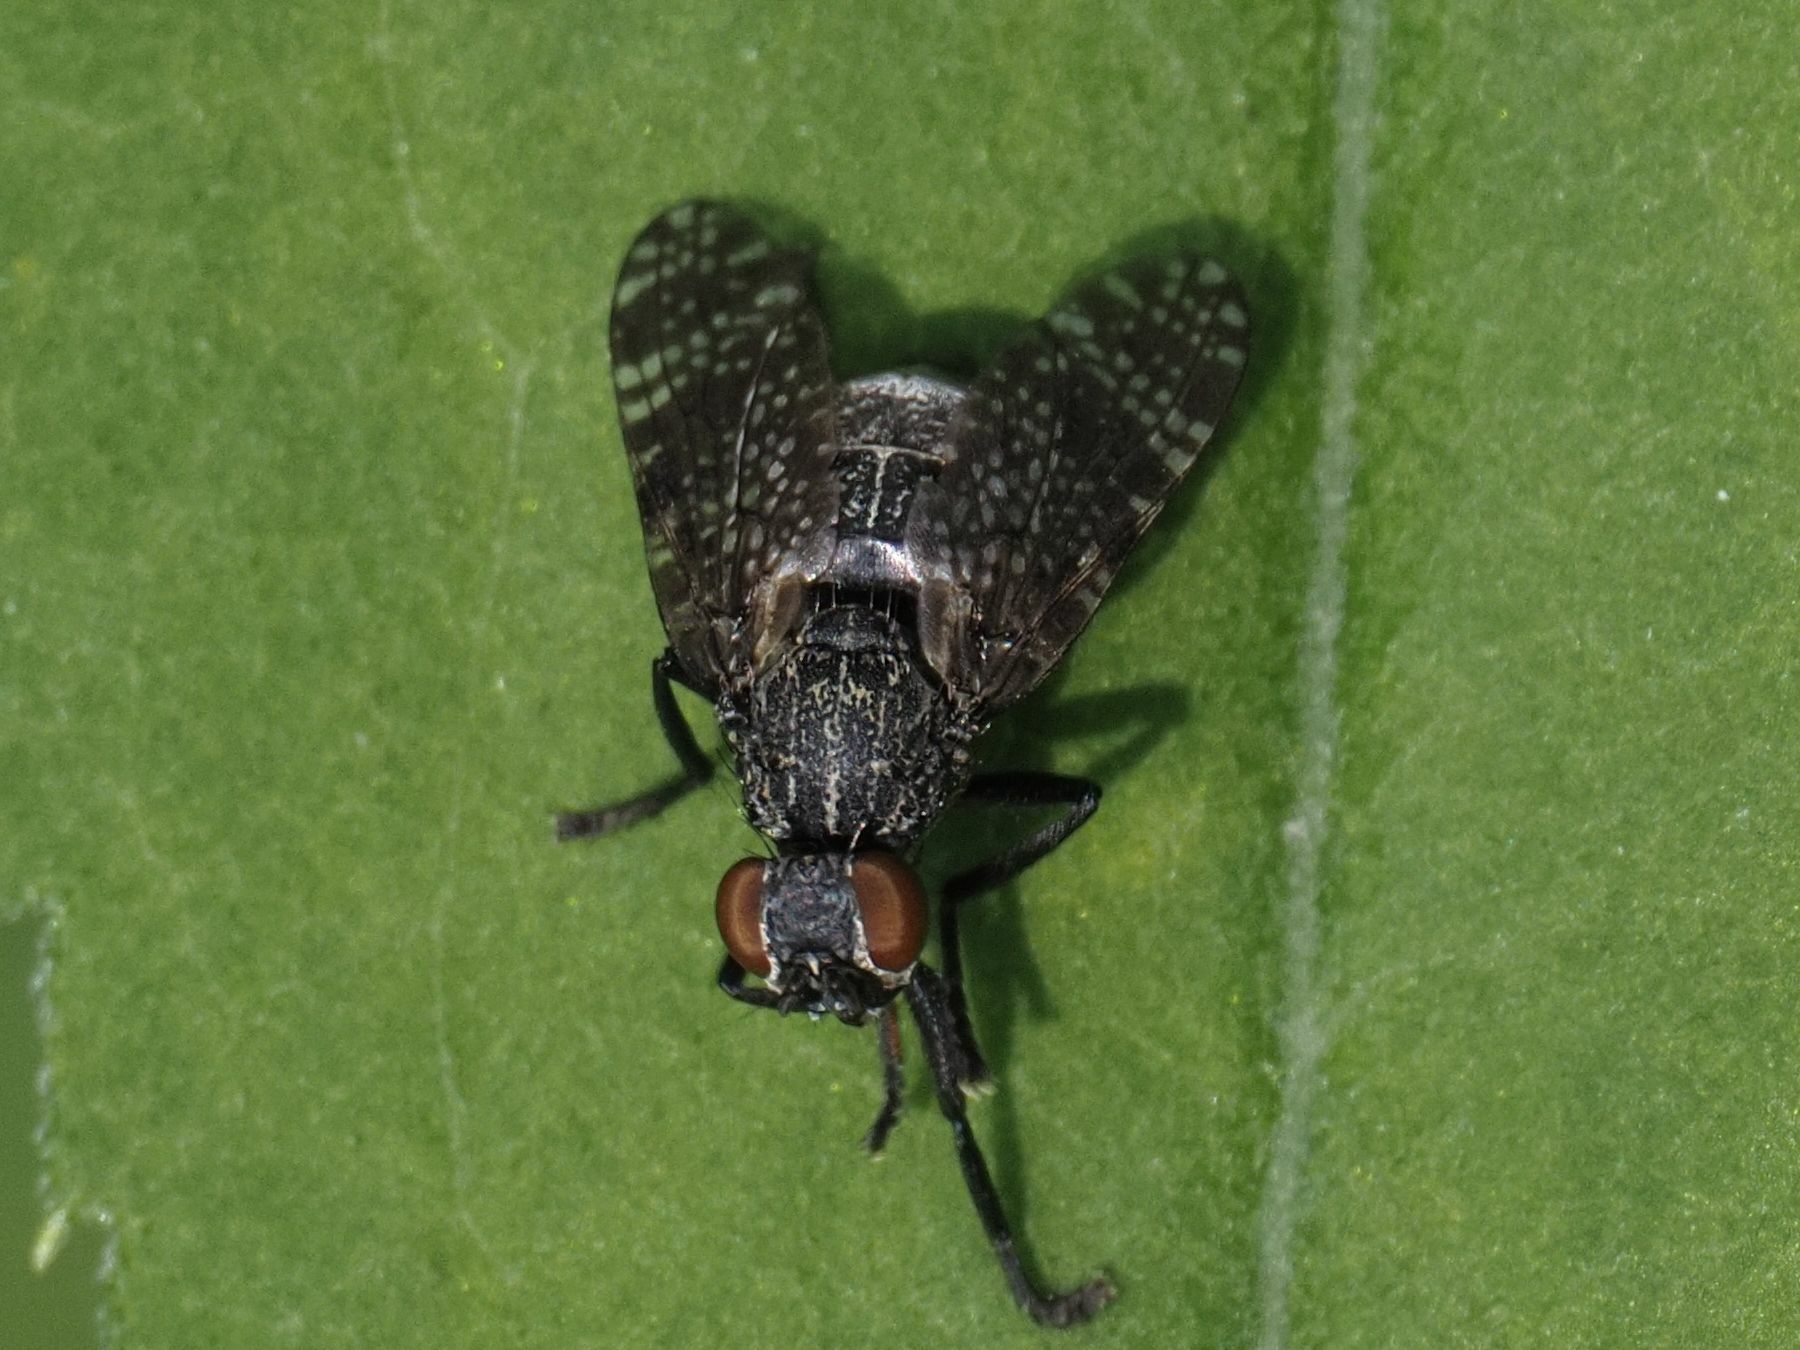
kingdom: Animalia
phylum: Arthropoda
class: Insecta
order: Diptera
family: Platystomatidae
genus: Platystoma
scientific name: Platystoma seminationis
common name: Fly
